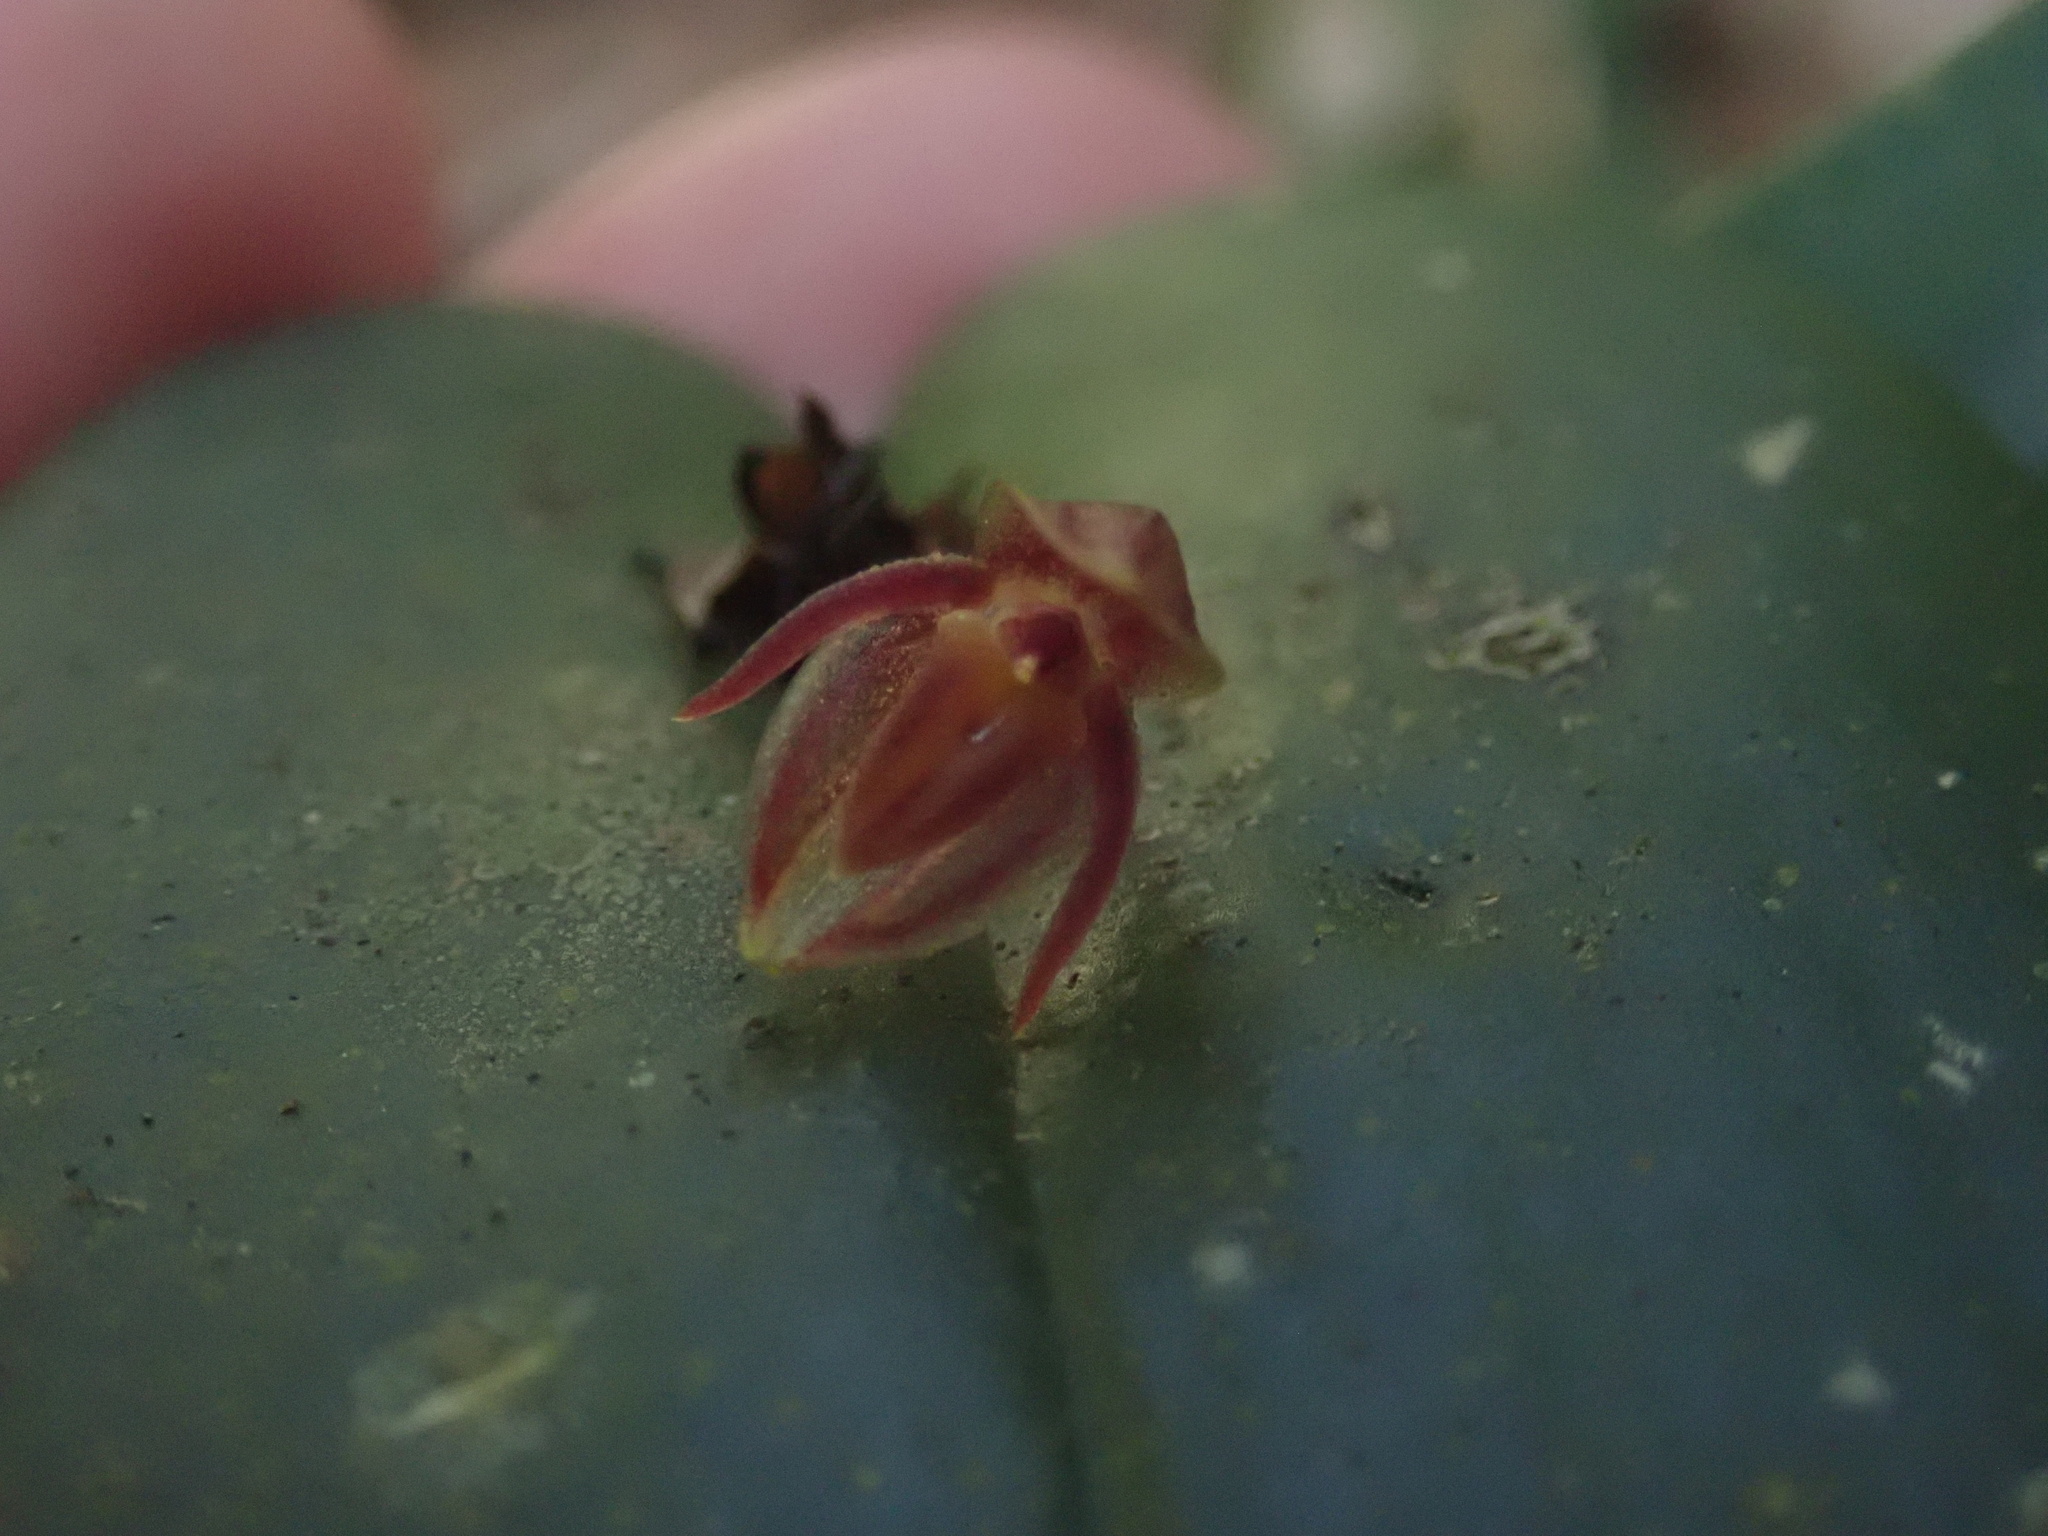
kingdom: Plantae
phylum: Tracheophyta
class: Liliopsida
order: Asparagales
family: Orchidaceae
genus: Pleurothallis
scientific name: Pleurothallis matudana
